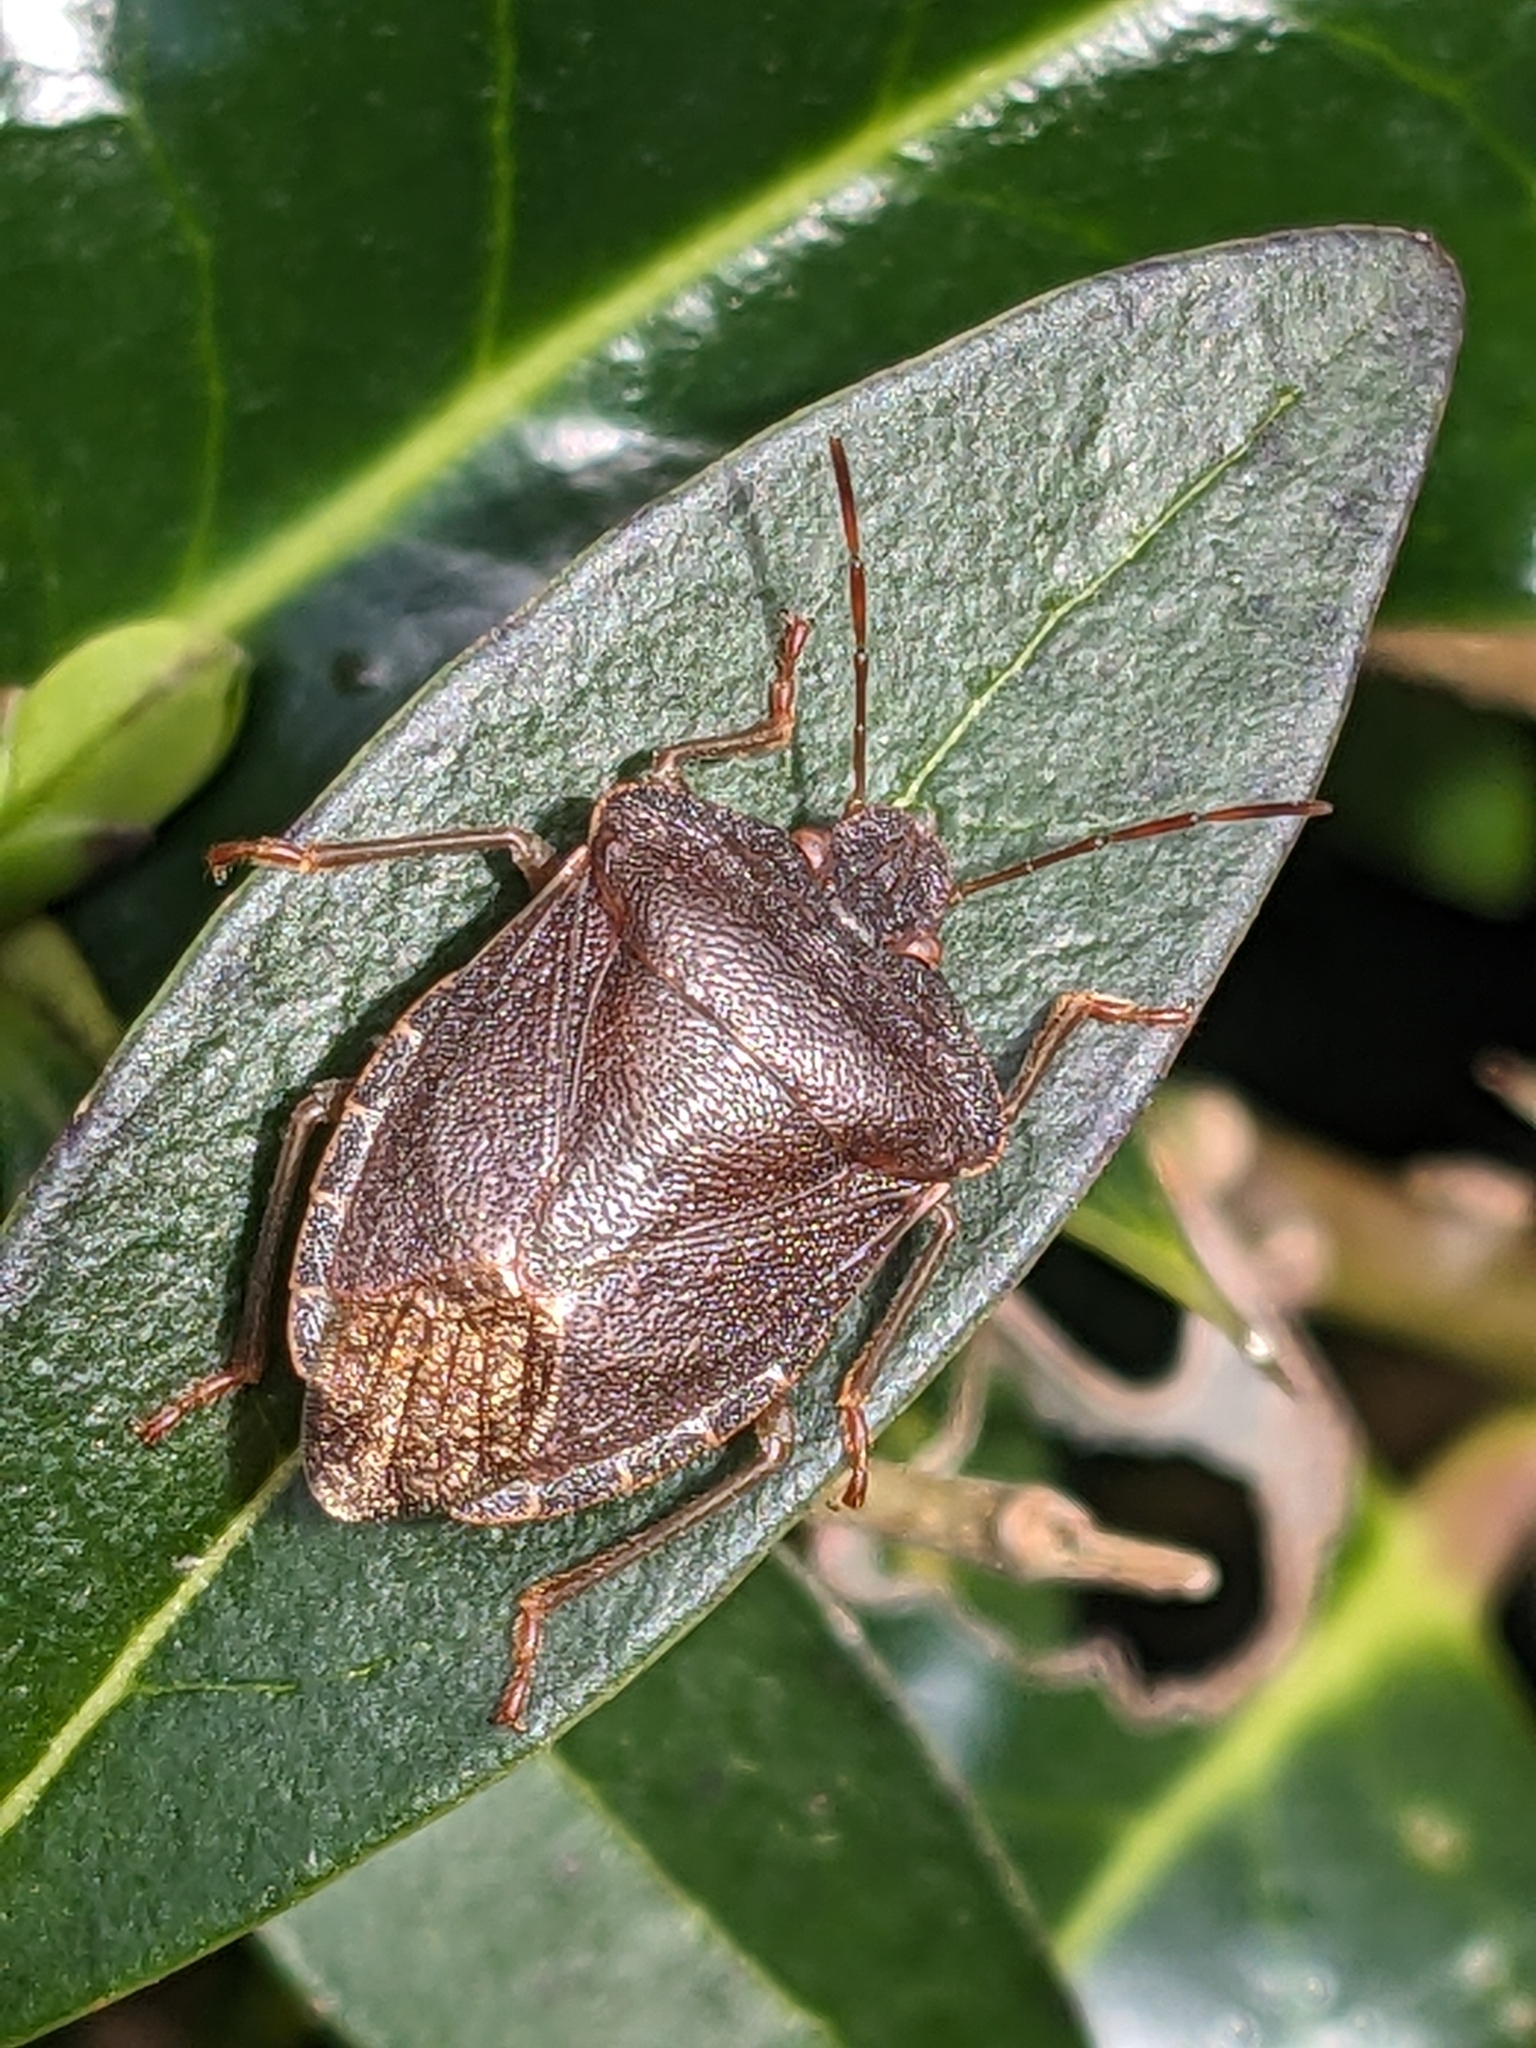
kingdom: Animalia
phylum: Arthropoda
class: Insecta
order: Hemiptera
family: Pentatomidae
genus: Palomena
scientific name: Palomena prasina
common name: Green shieldbug
